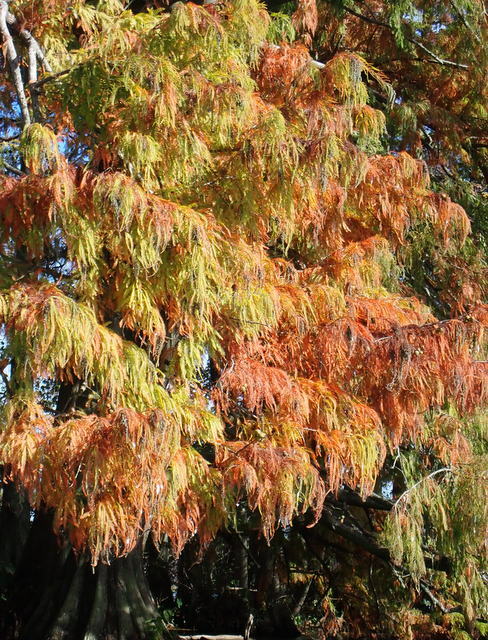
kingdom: Plantae
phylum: Tracheophyta
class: Pinopsida
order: Pinales
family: Cupressaceae
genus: Taxodium
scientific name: Taxodium distichum
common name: Bald cypress
